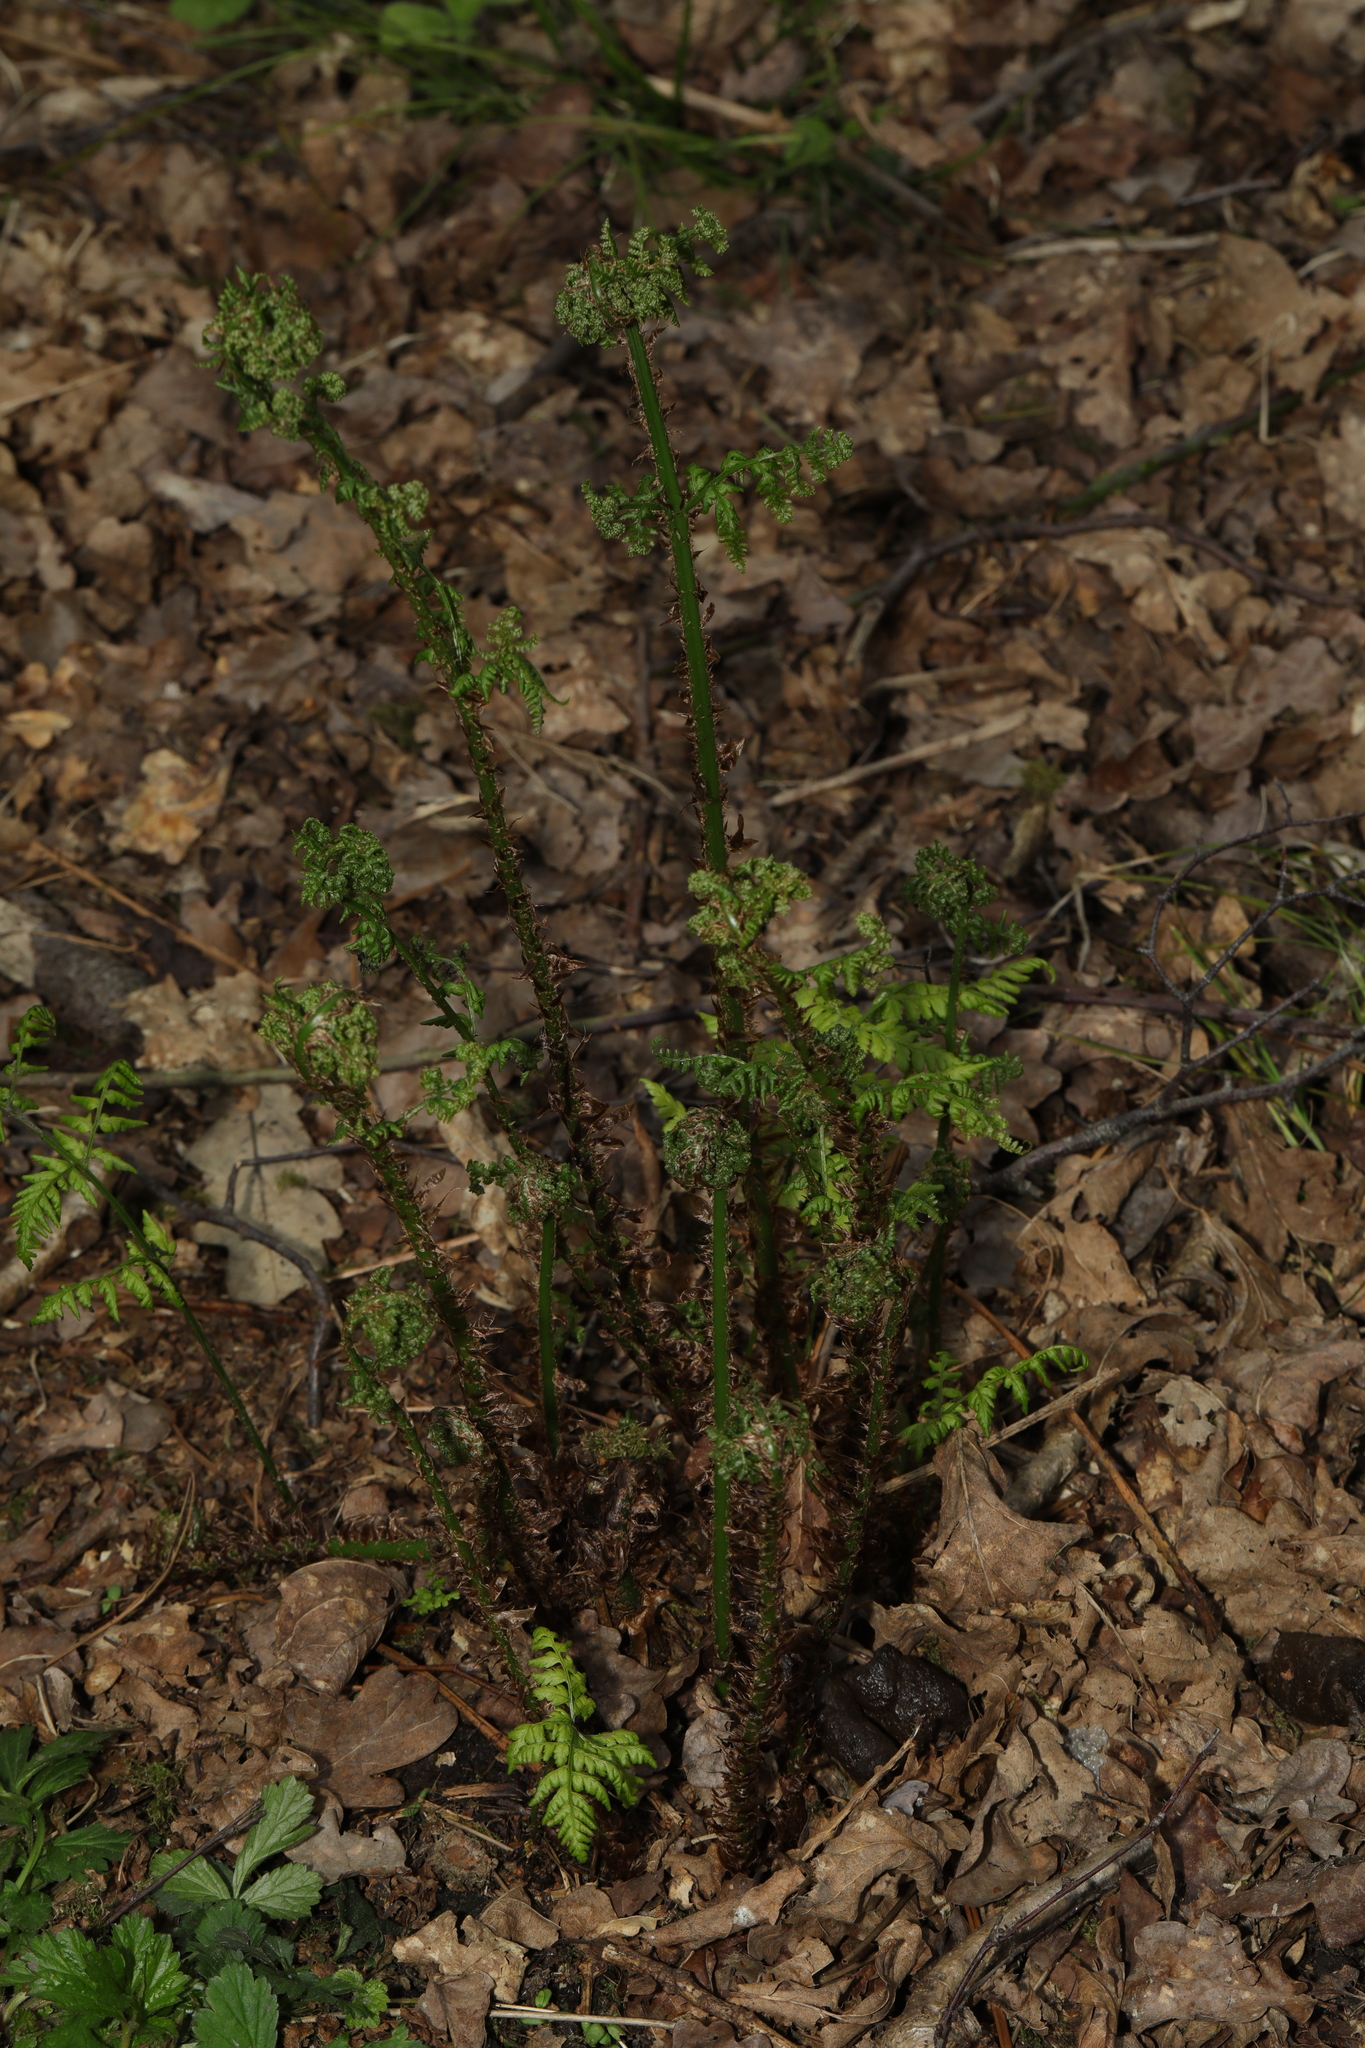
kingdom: Plantae
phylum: Tracheophyta
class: Polypodiopsida
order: Polypodiales
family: Dryopteridaceae
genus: Dryopteris
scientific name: Dryopteris dilatata
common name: Broad buckler-fern
